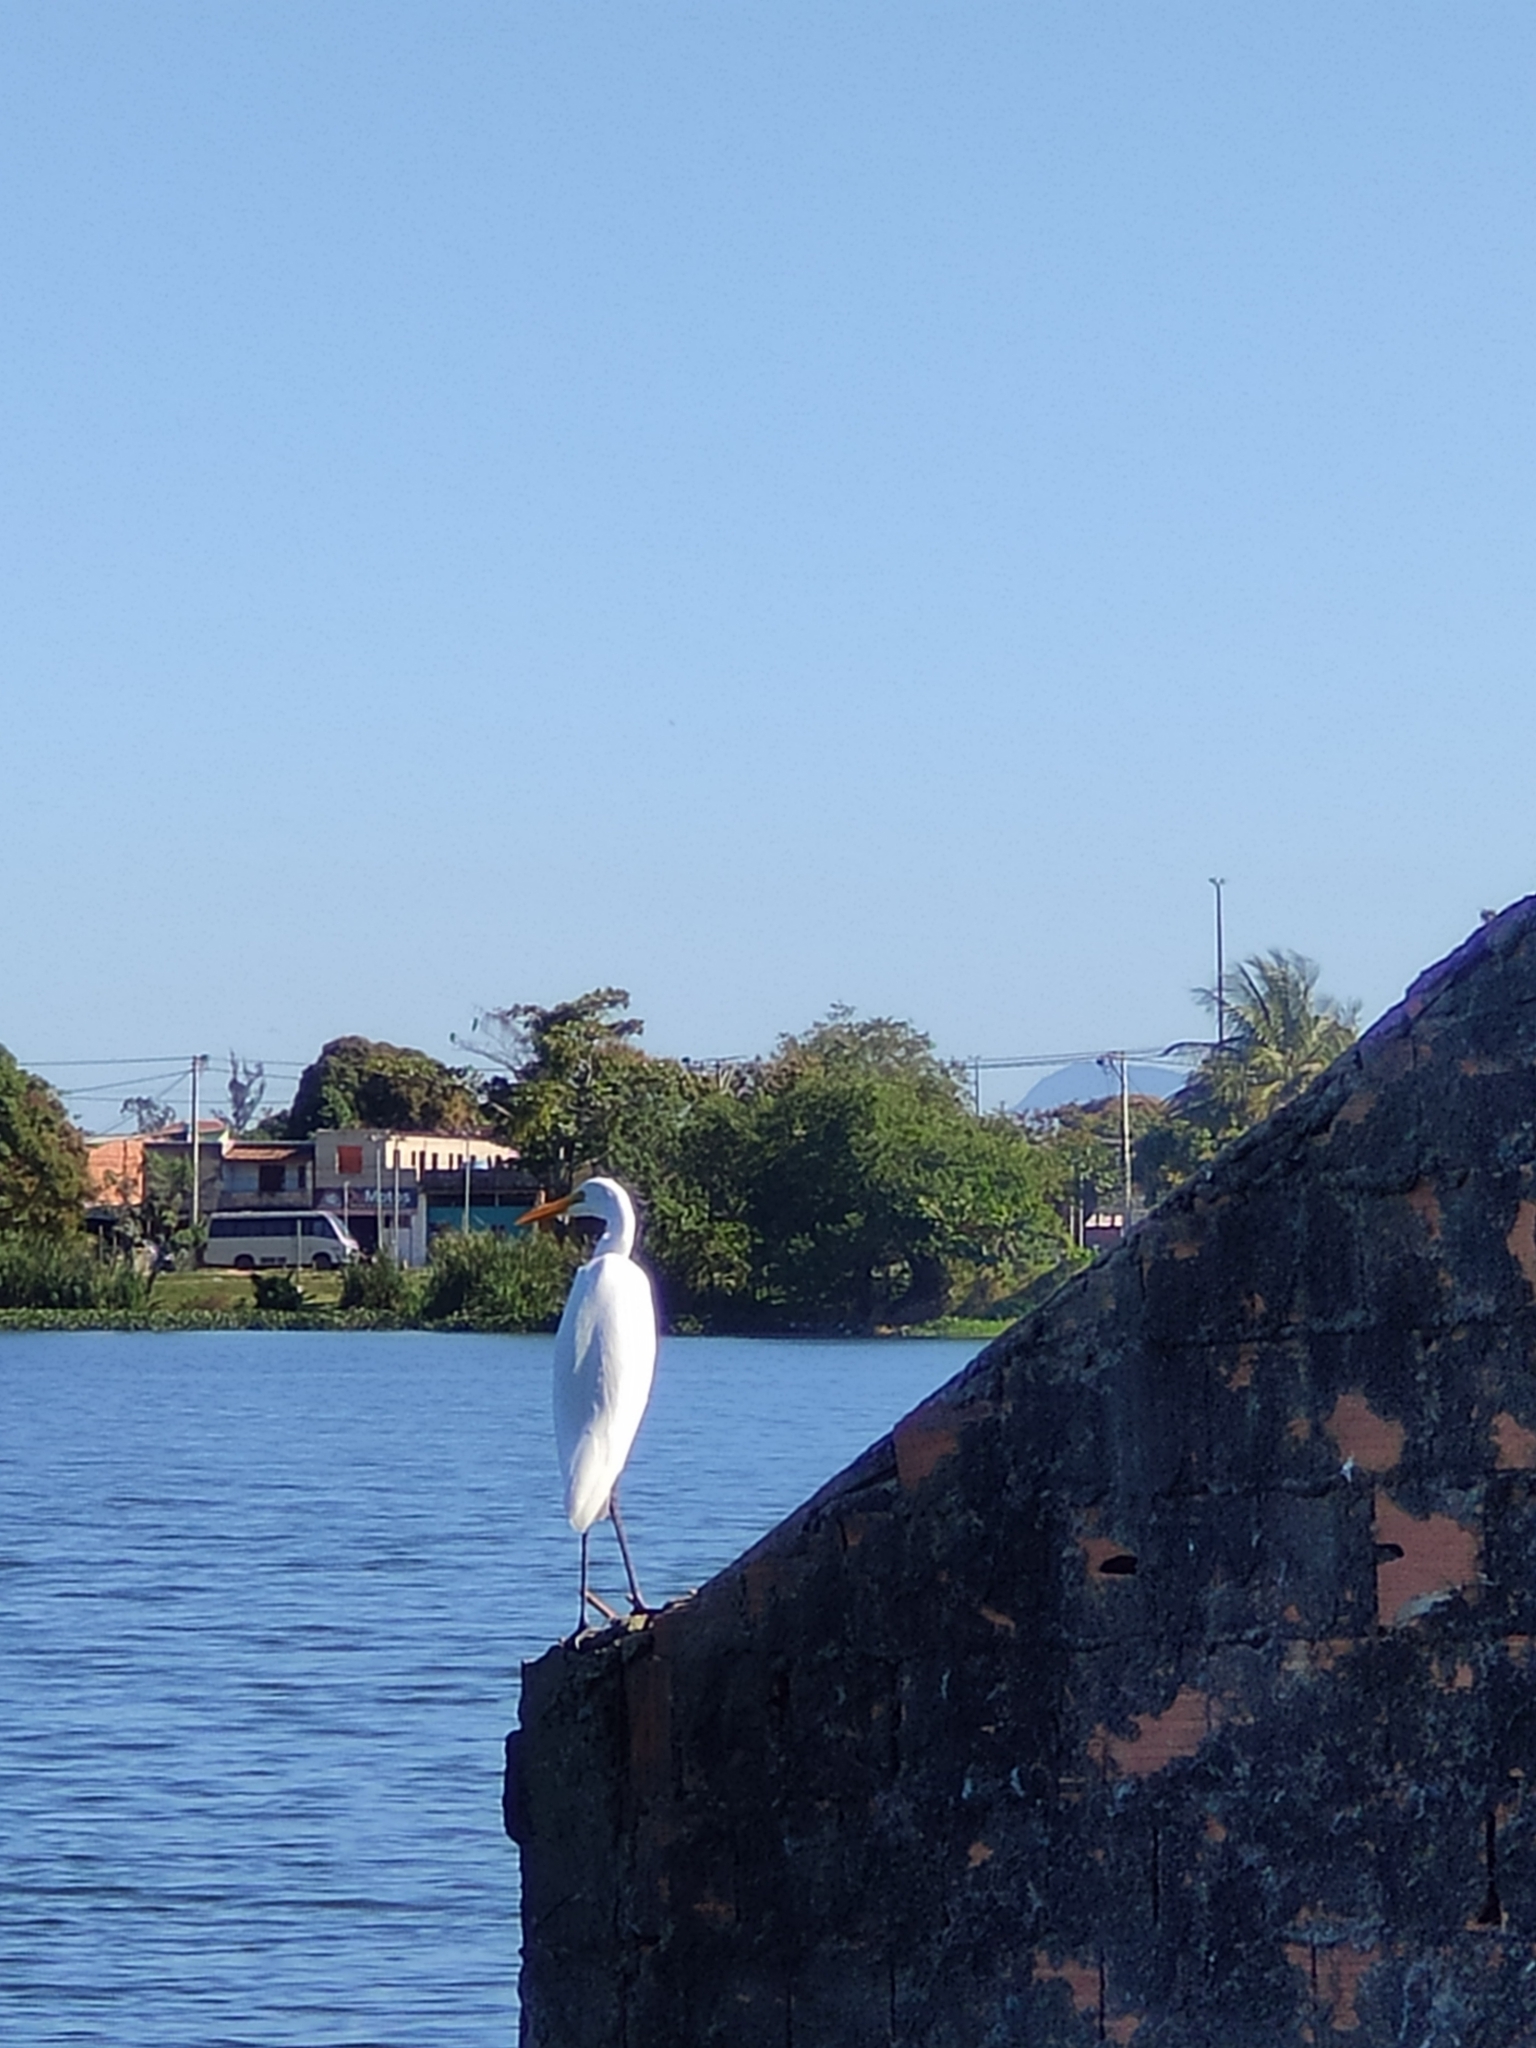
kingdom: Animalia
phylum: Chordata
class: Aves
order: Pelecaniformes
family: Ardeidae
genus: Ardea
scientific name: Ardea alba
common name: Great egret
